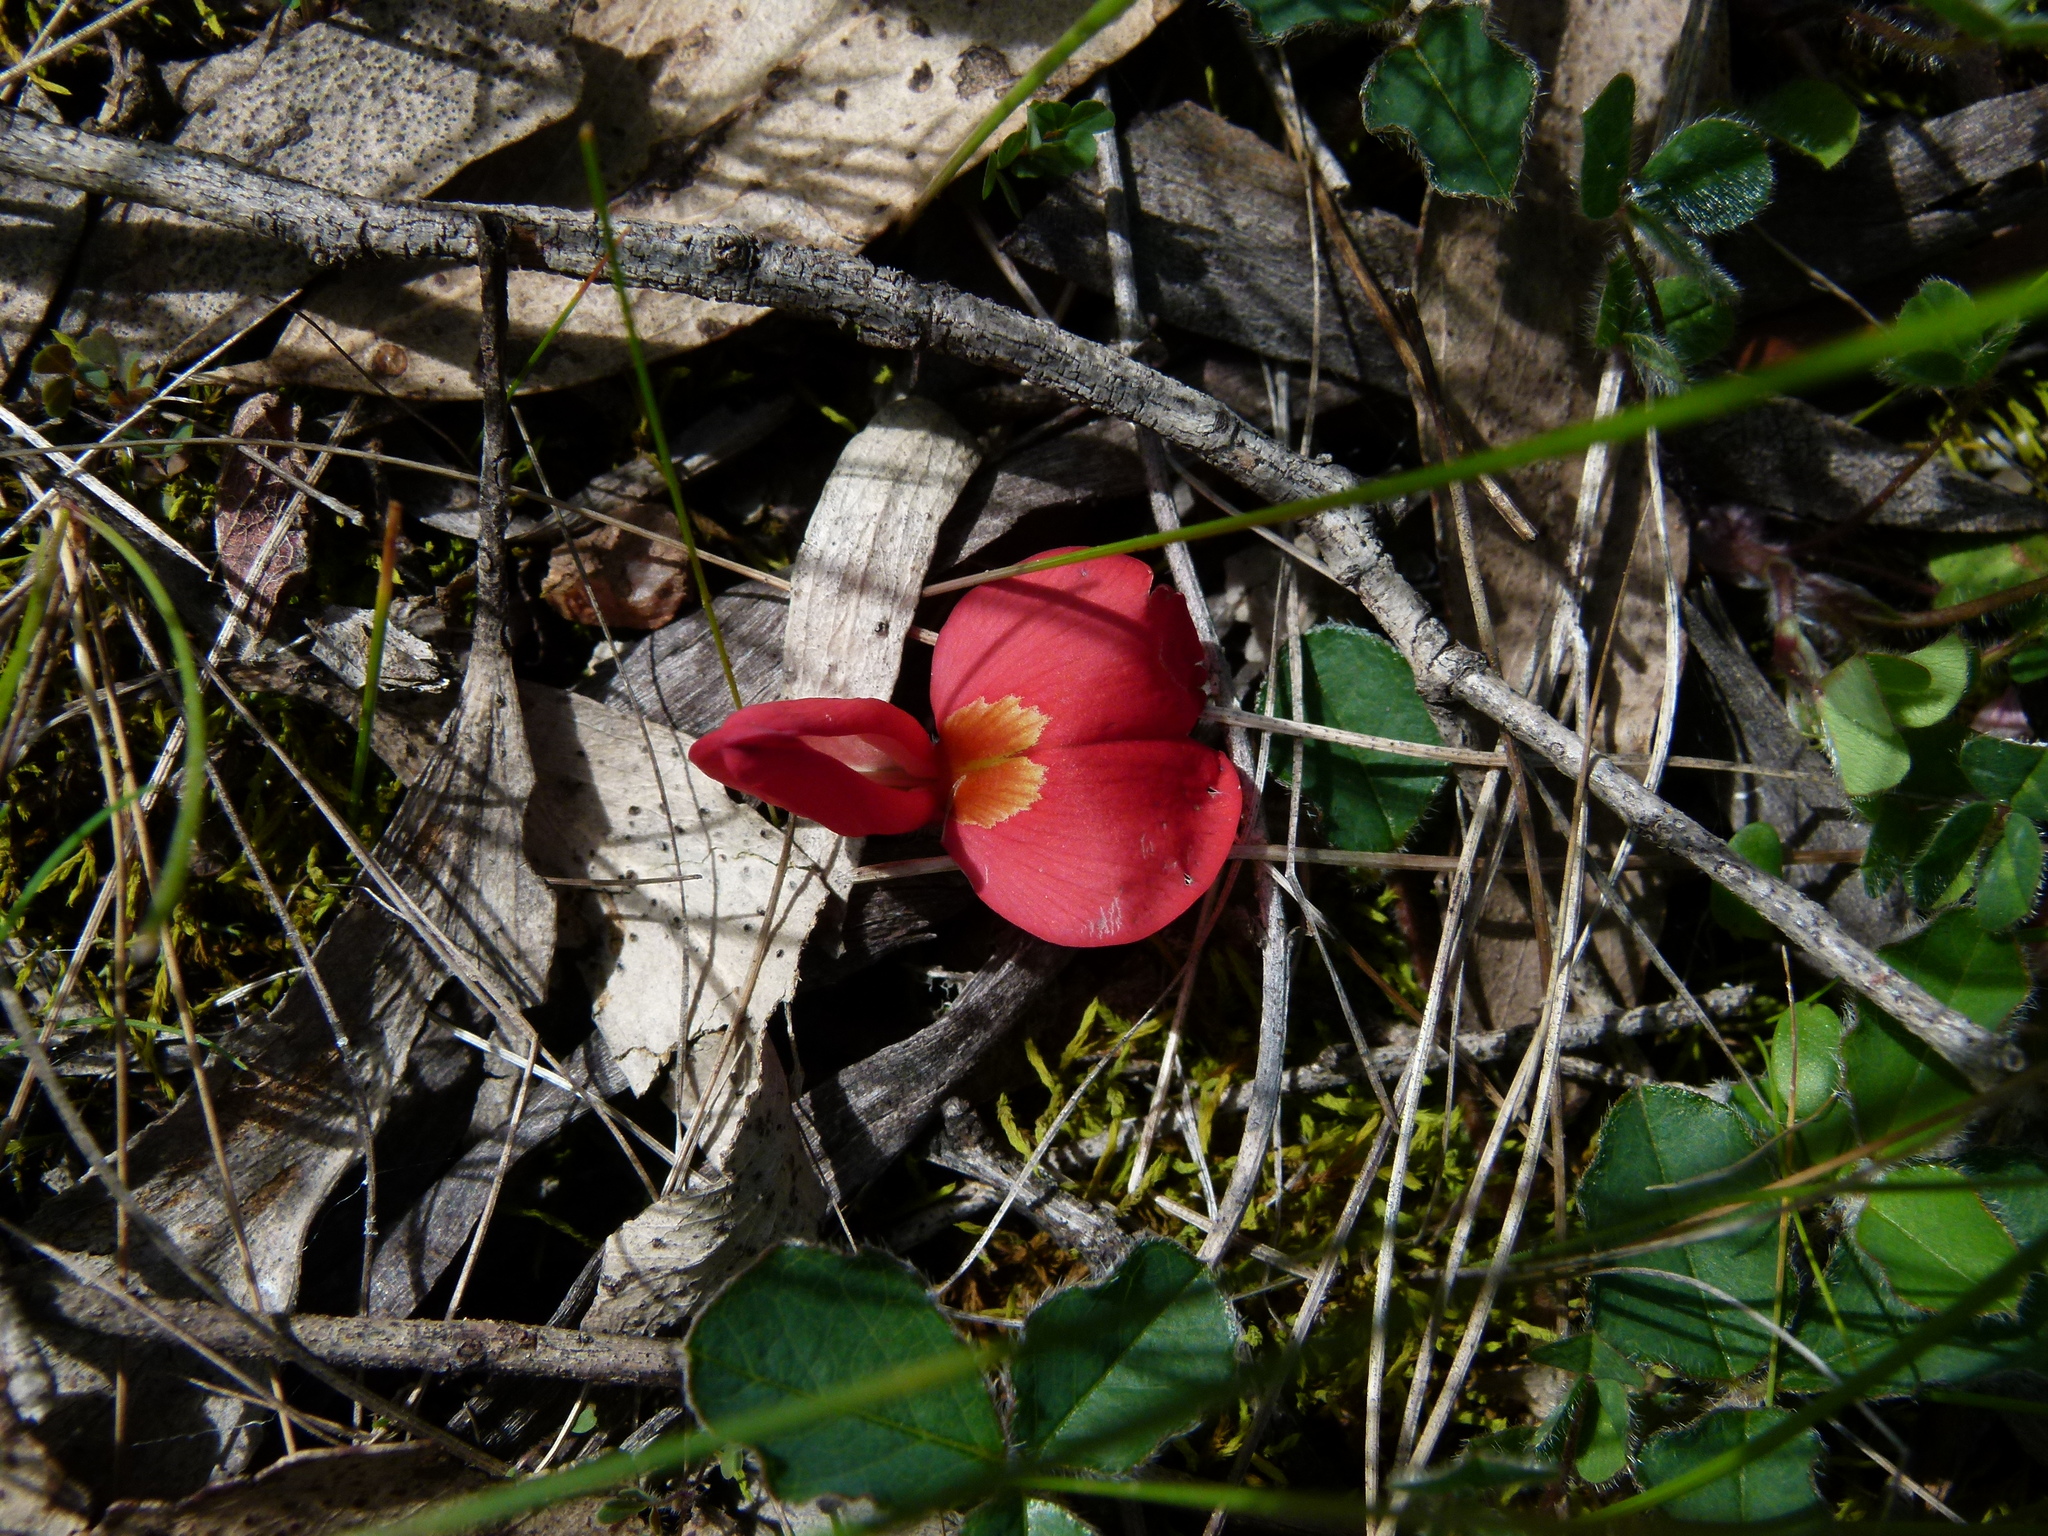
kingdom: Plantae
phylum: Tracheophyta
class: Magnoliopsida
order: Fabales
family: Fabaceae
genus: Kennedia
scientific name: Kennedia prostrata
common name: Running-postman
